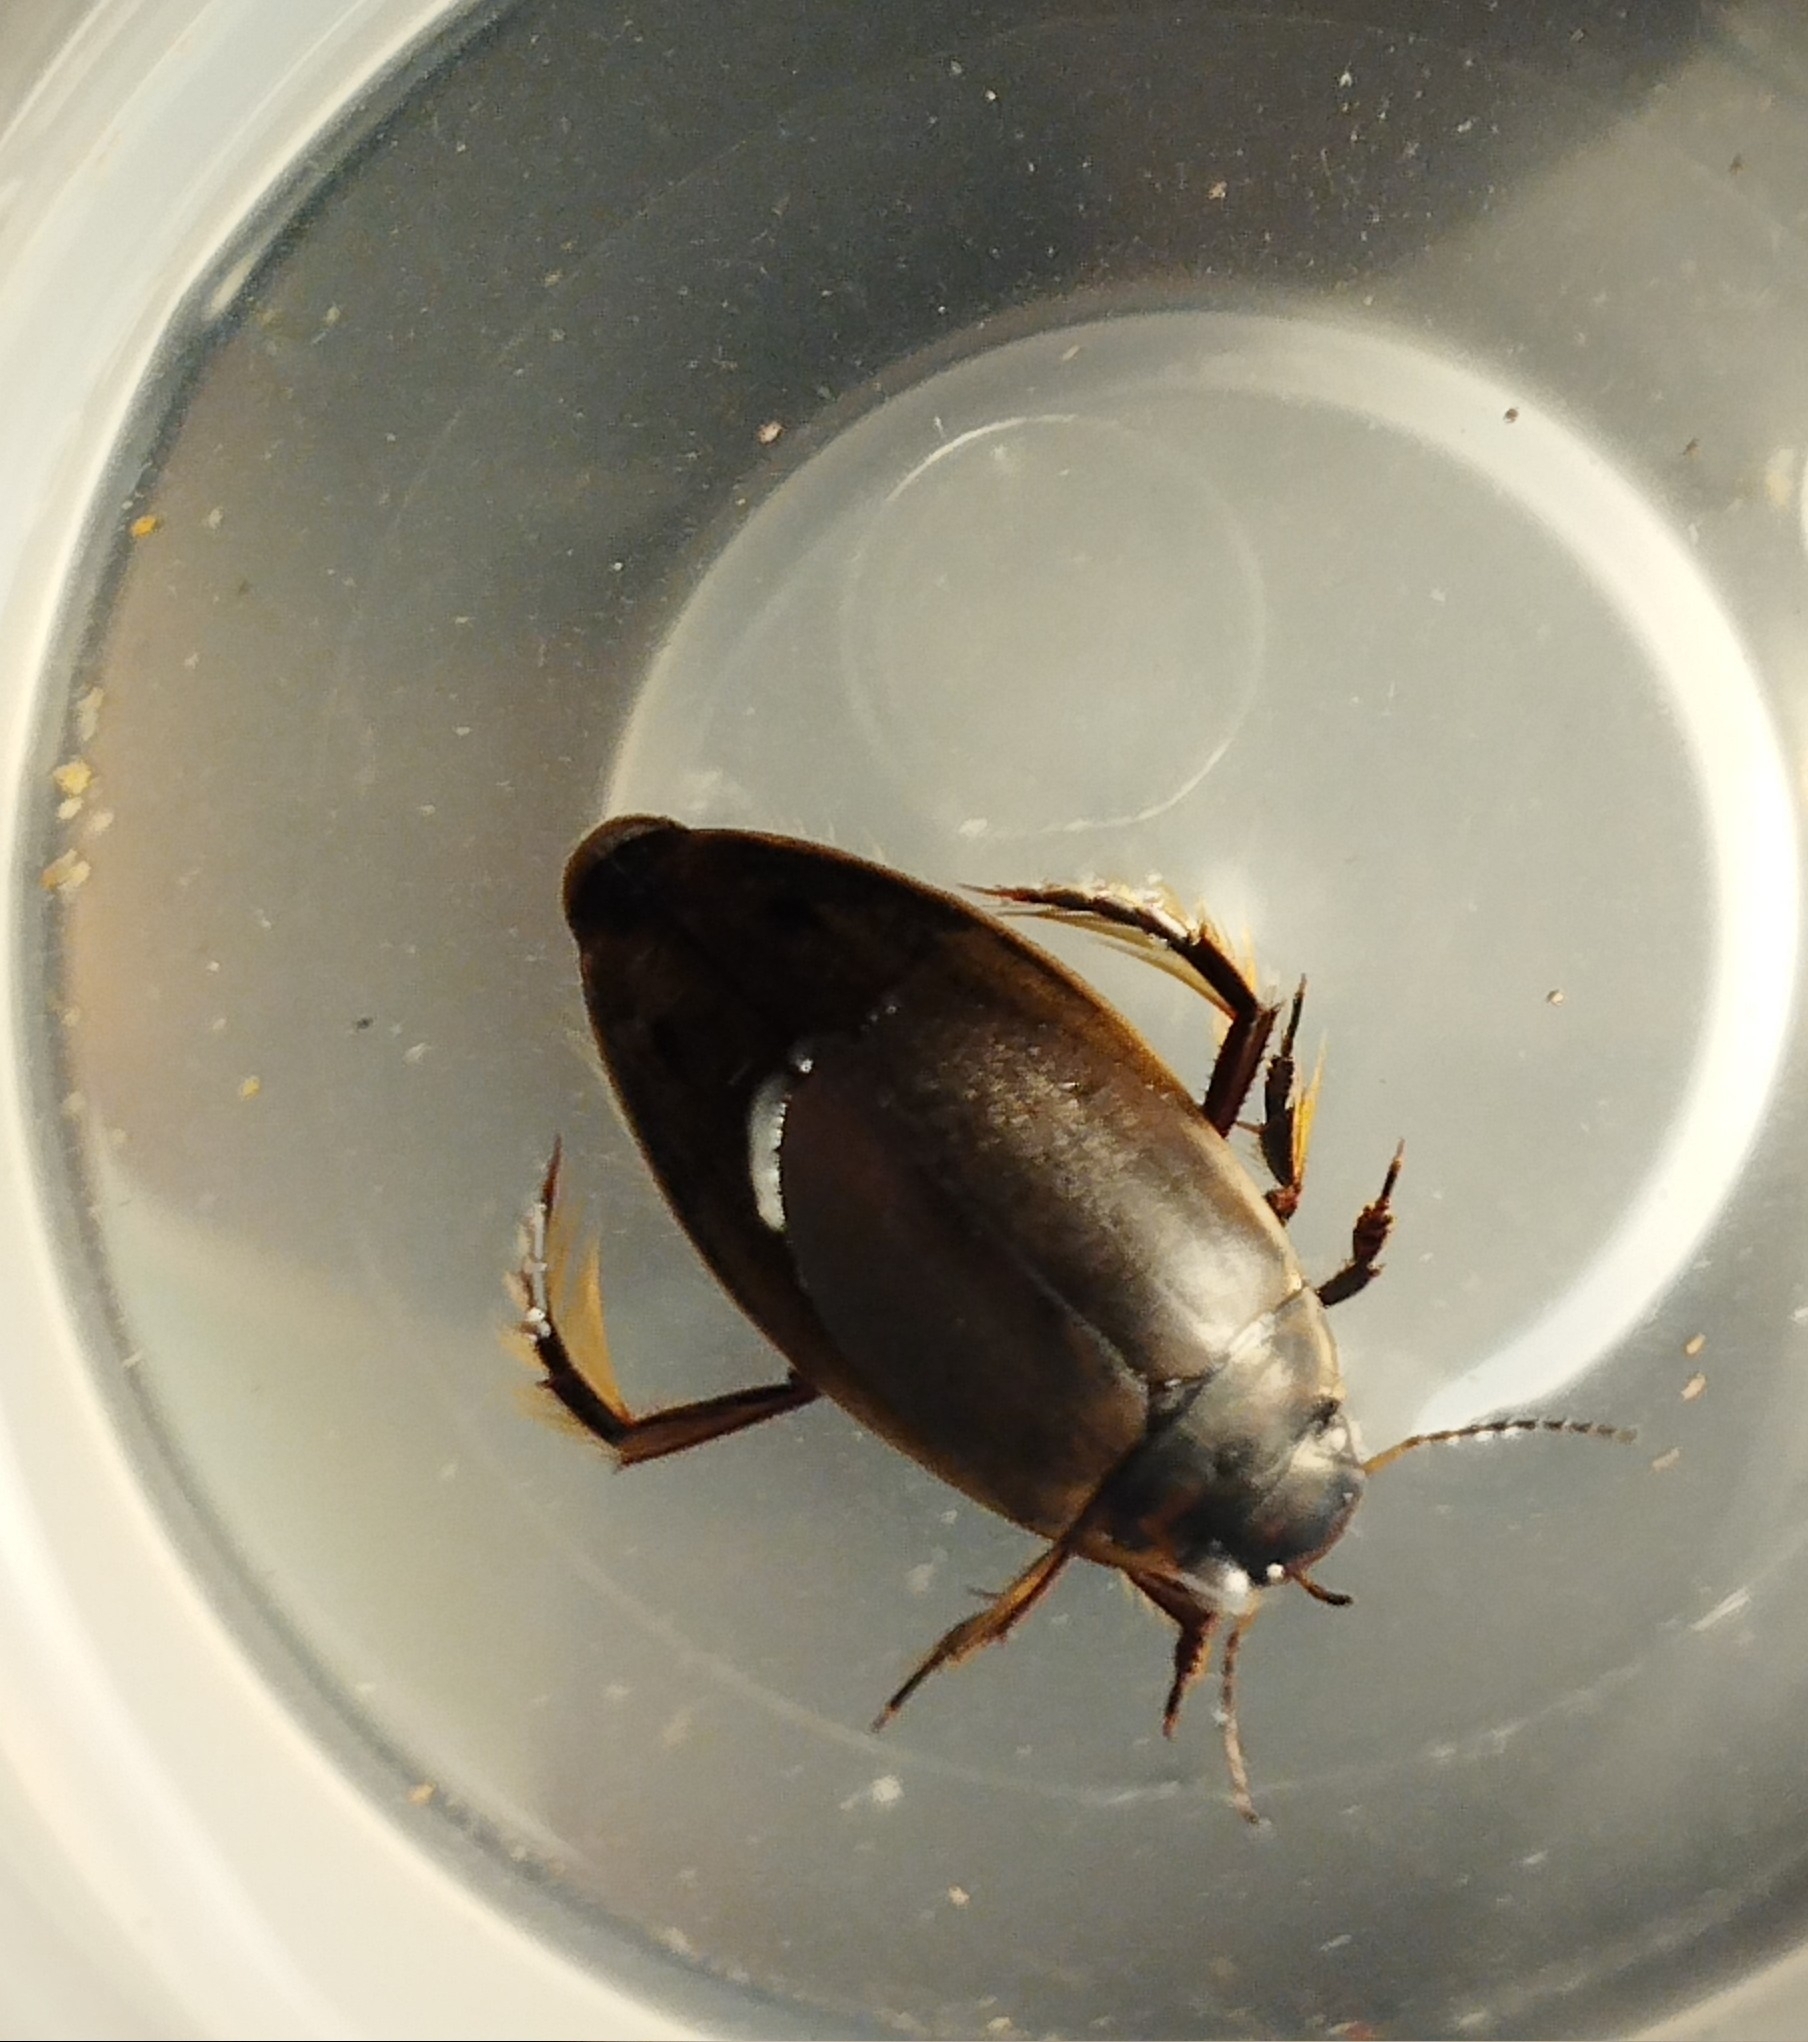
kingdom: Animalia
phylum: Arthropoda
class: Insecta
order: Coleoptera
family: Dytiscidae
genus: Colymbetes
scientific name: Colymbetes paykulli
